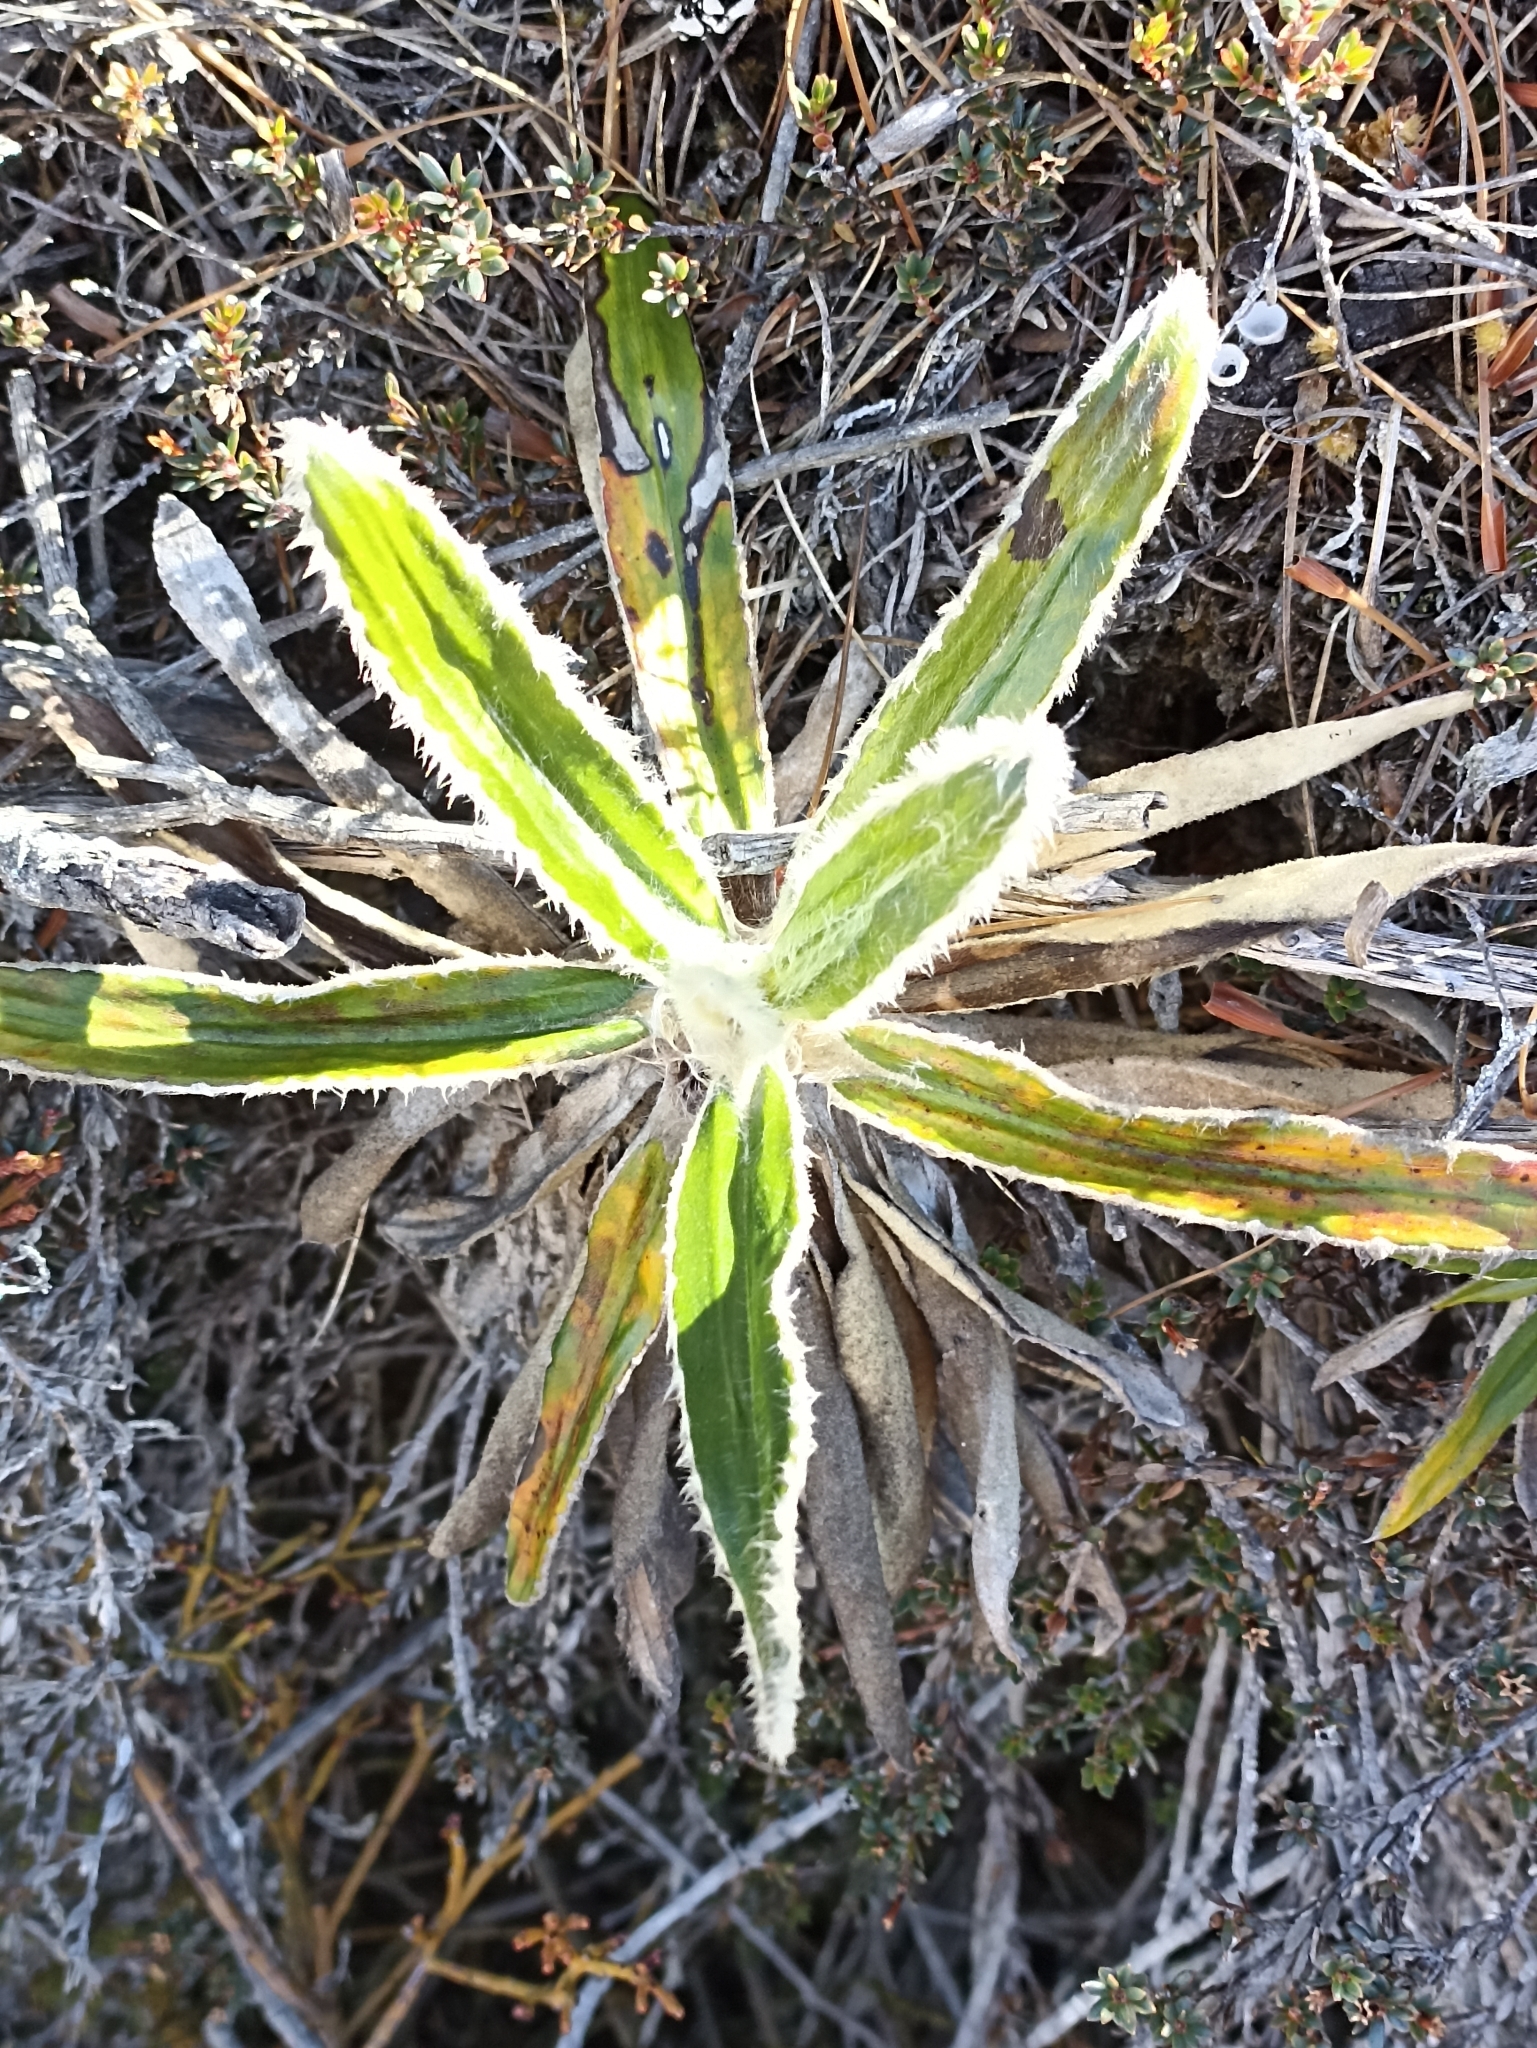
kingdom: Plantae
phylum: Tracheophyta
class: Magnoliopsida
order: Asterales
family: Asteraceae
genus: Celmisia
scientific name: Celmisia spectabilis
